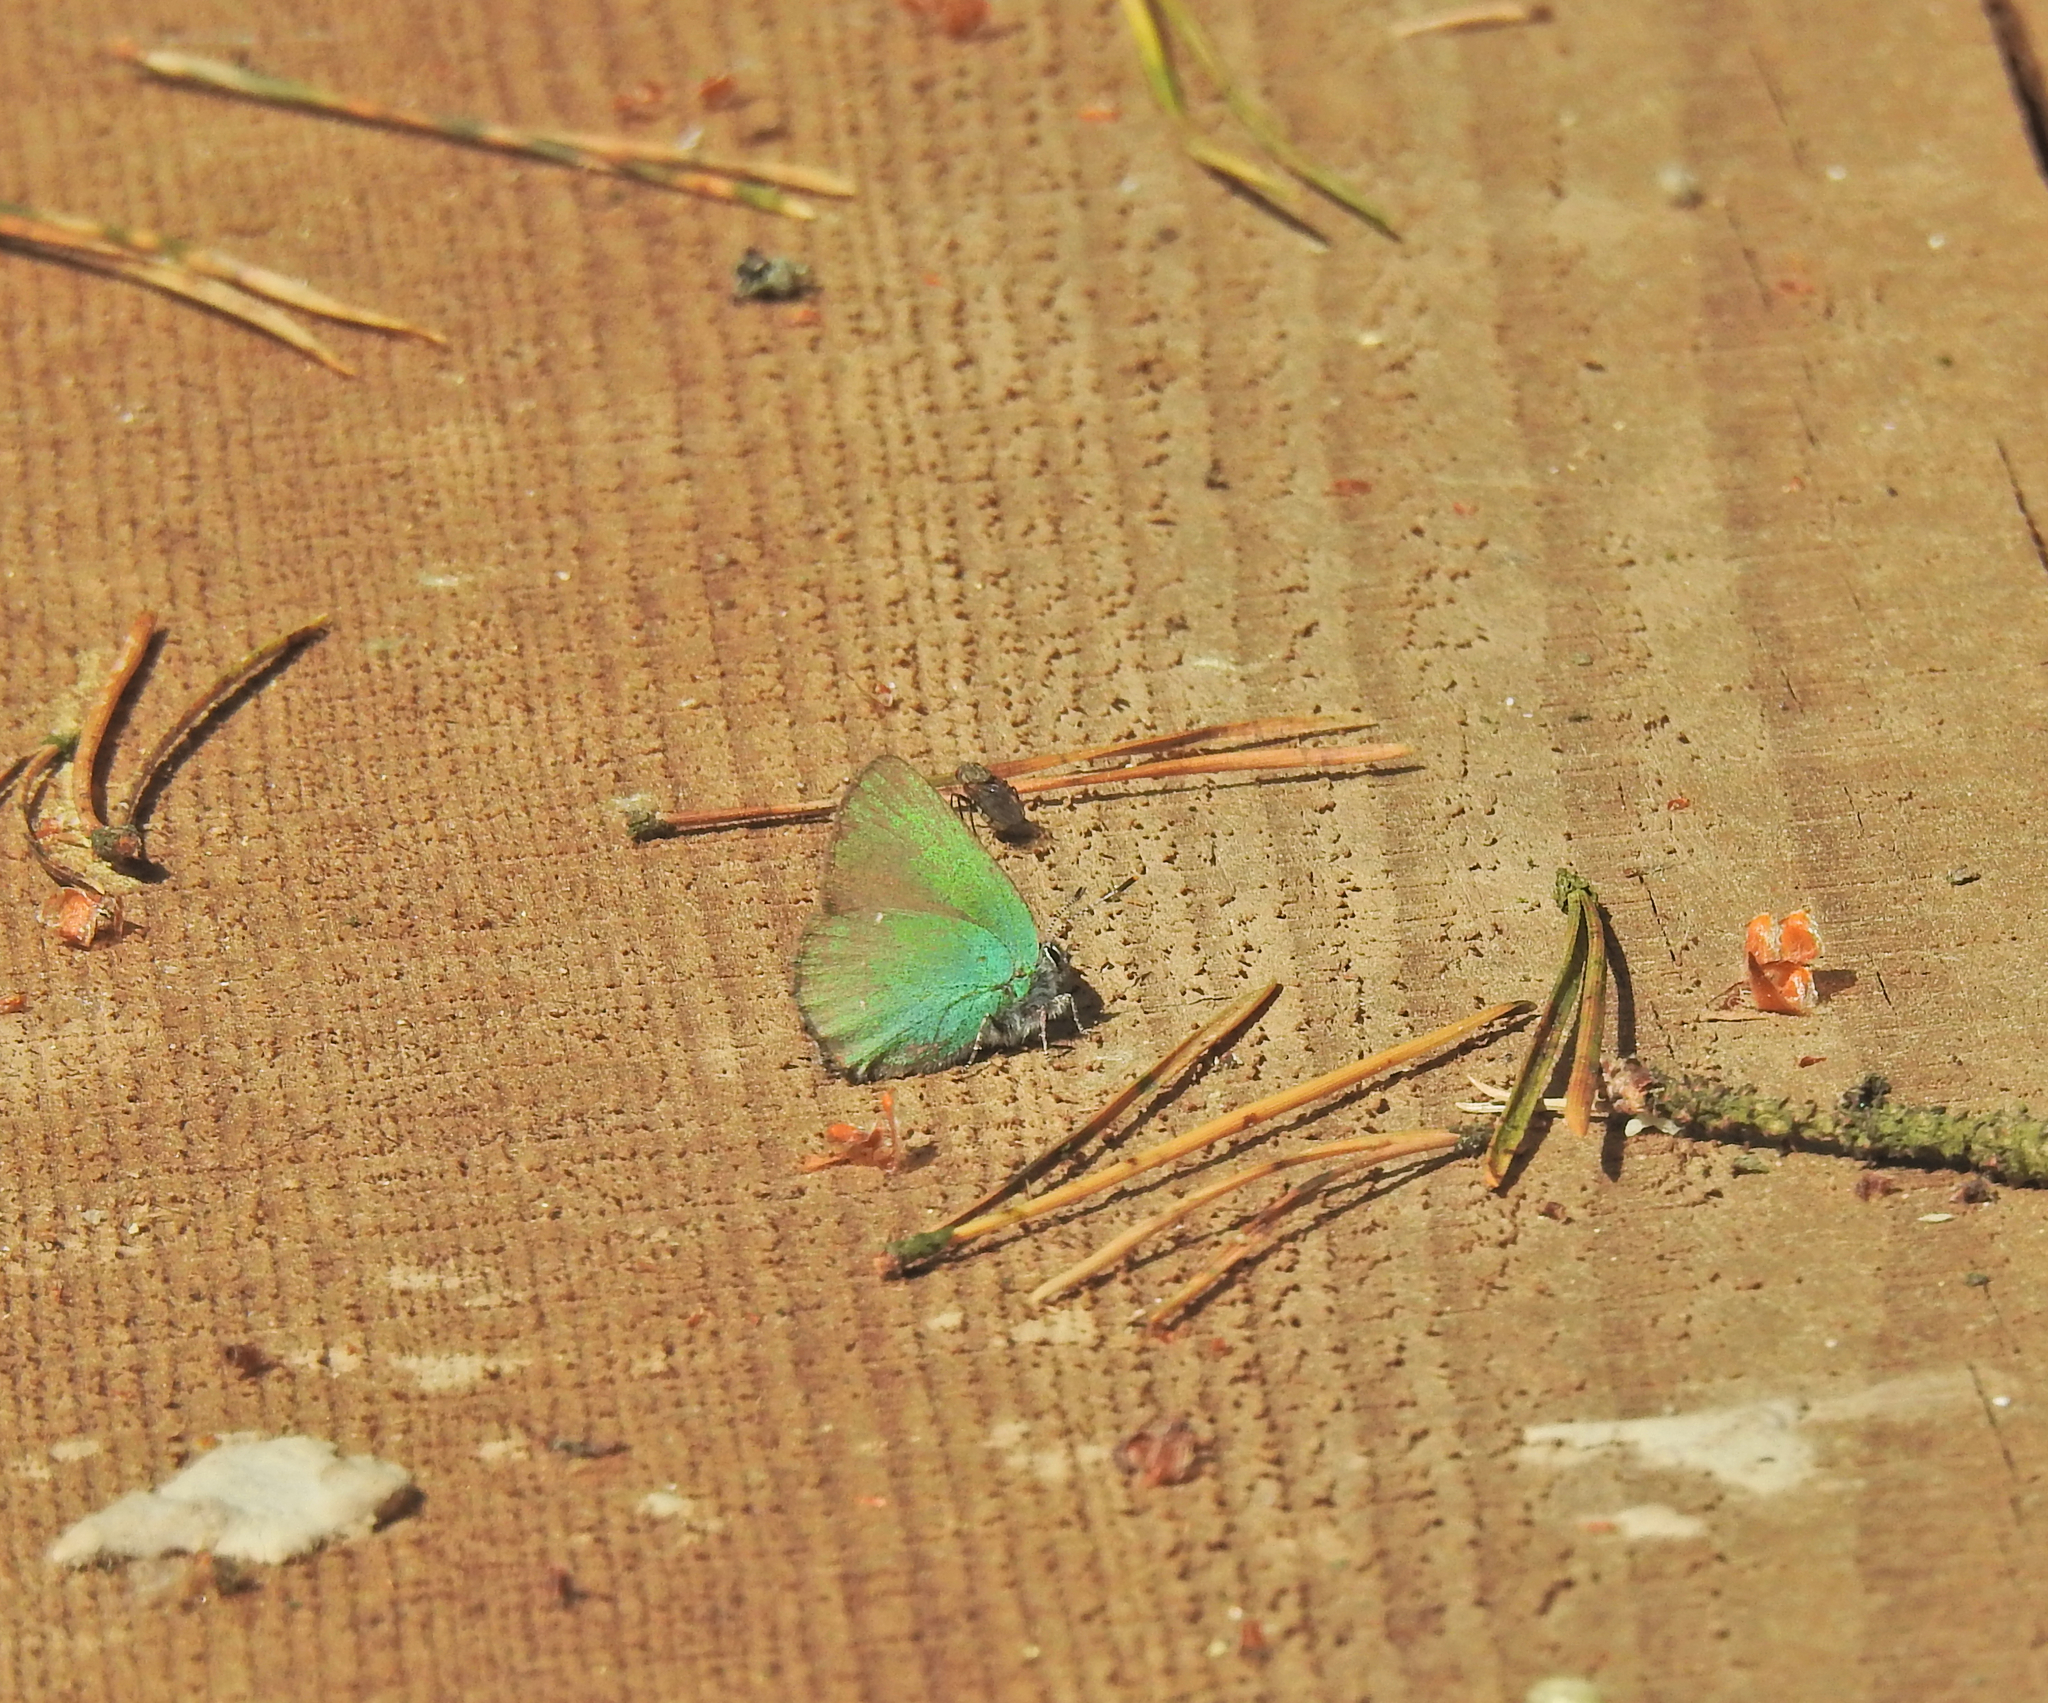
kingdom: Animalia
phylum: Arthropoda
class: Insecta
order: Lepidoptera
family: Lycaenidae
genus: Callophrys
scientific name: Callophrys rubi
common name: Green hairstreak
